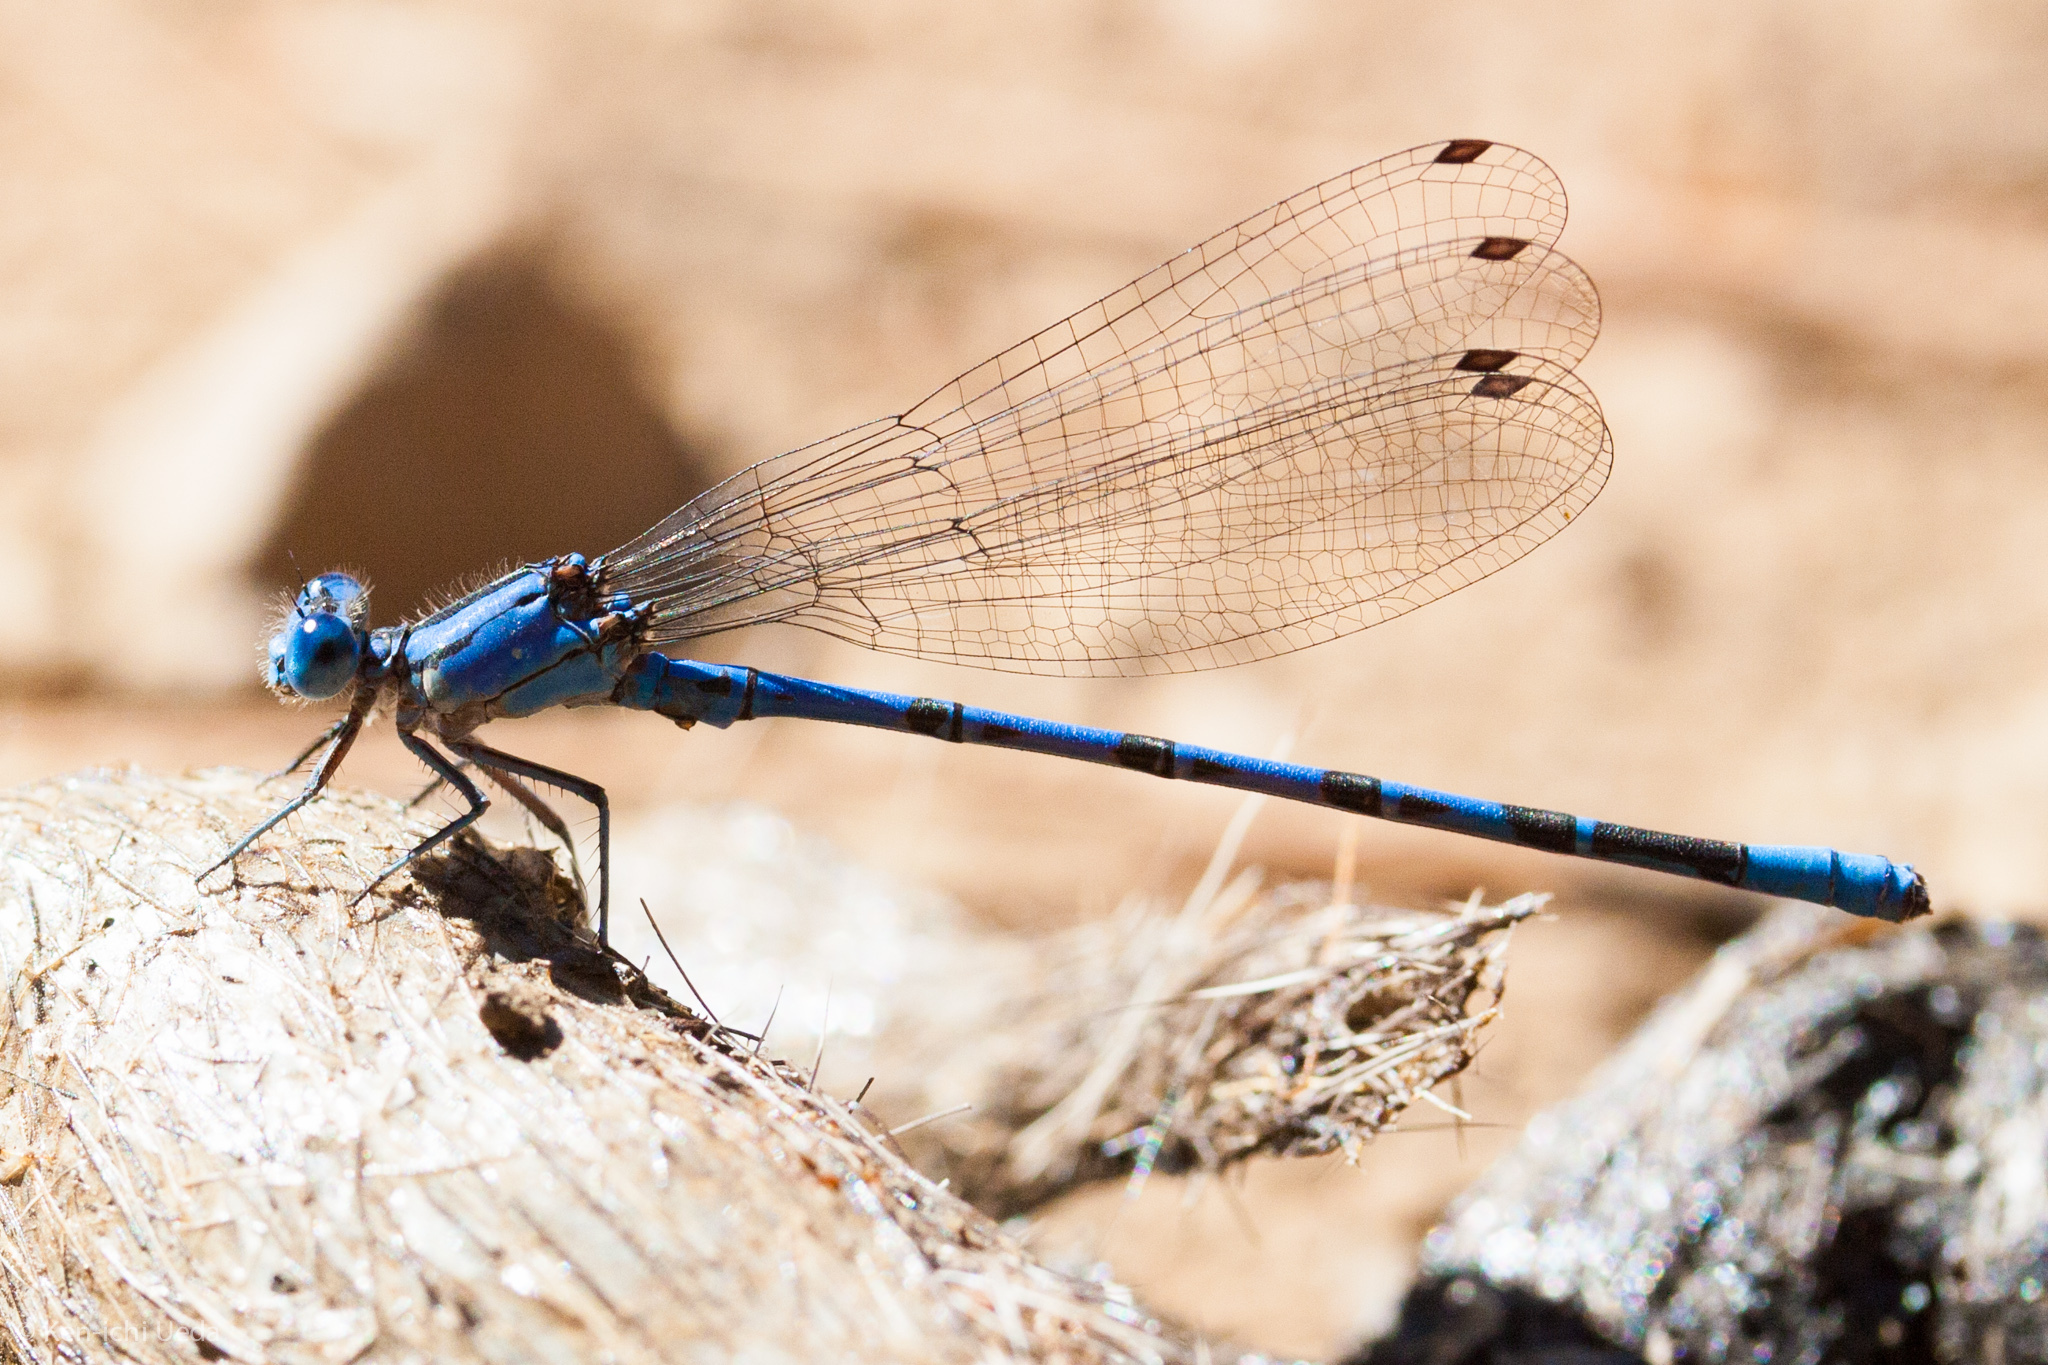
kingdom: Animalia
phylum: Arthropoda
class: Insecta
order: Odonata
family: Coenagrionidae
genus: Argia
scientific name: Argia vivida
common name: Vivid dancer
